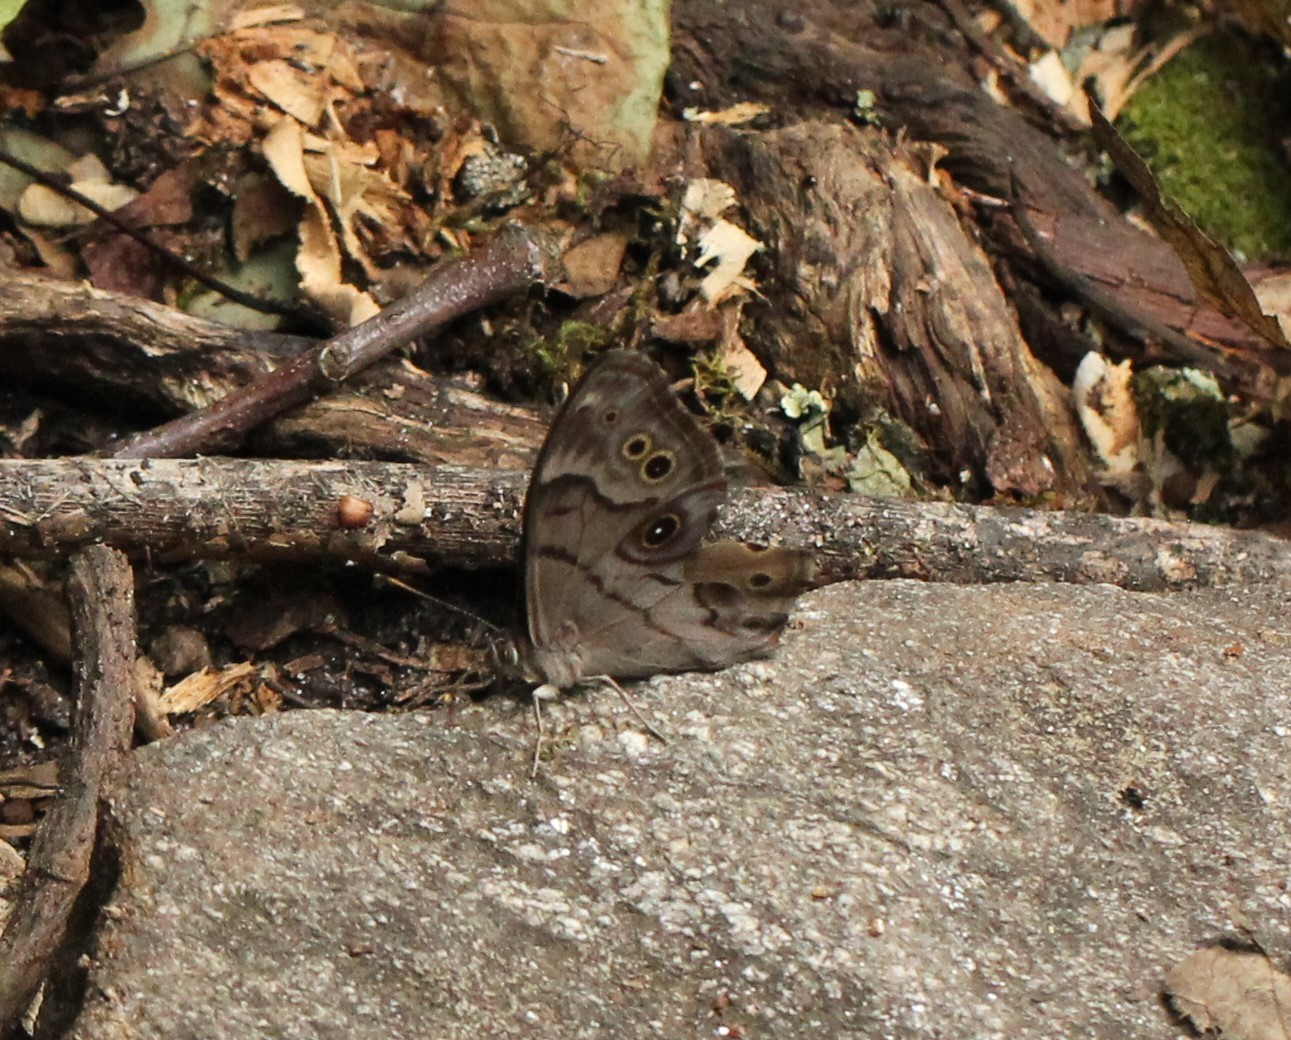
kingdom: Animalia
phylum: Arthropoda
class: Insecta
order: Lepidoptera
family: Nymphalidae
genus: Lethe
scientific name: Lethe anthedon
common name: Northern pearly-eye
